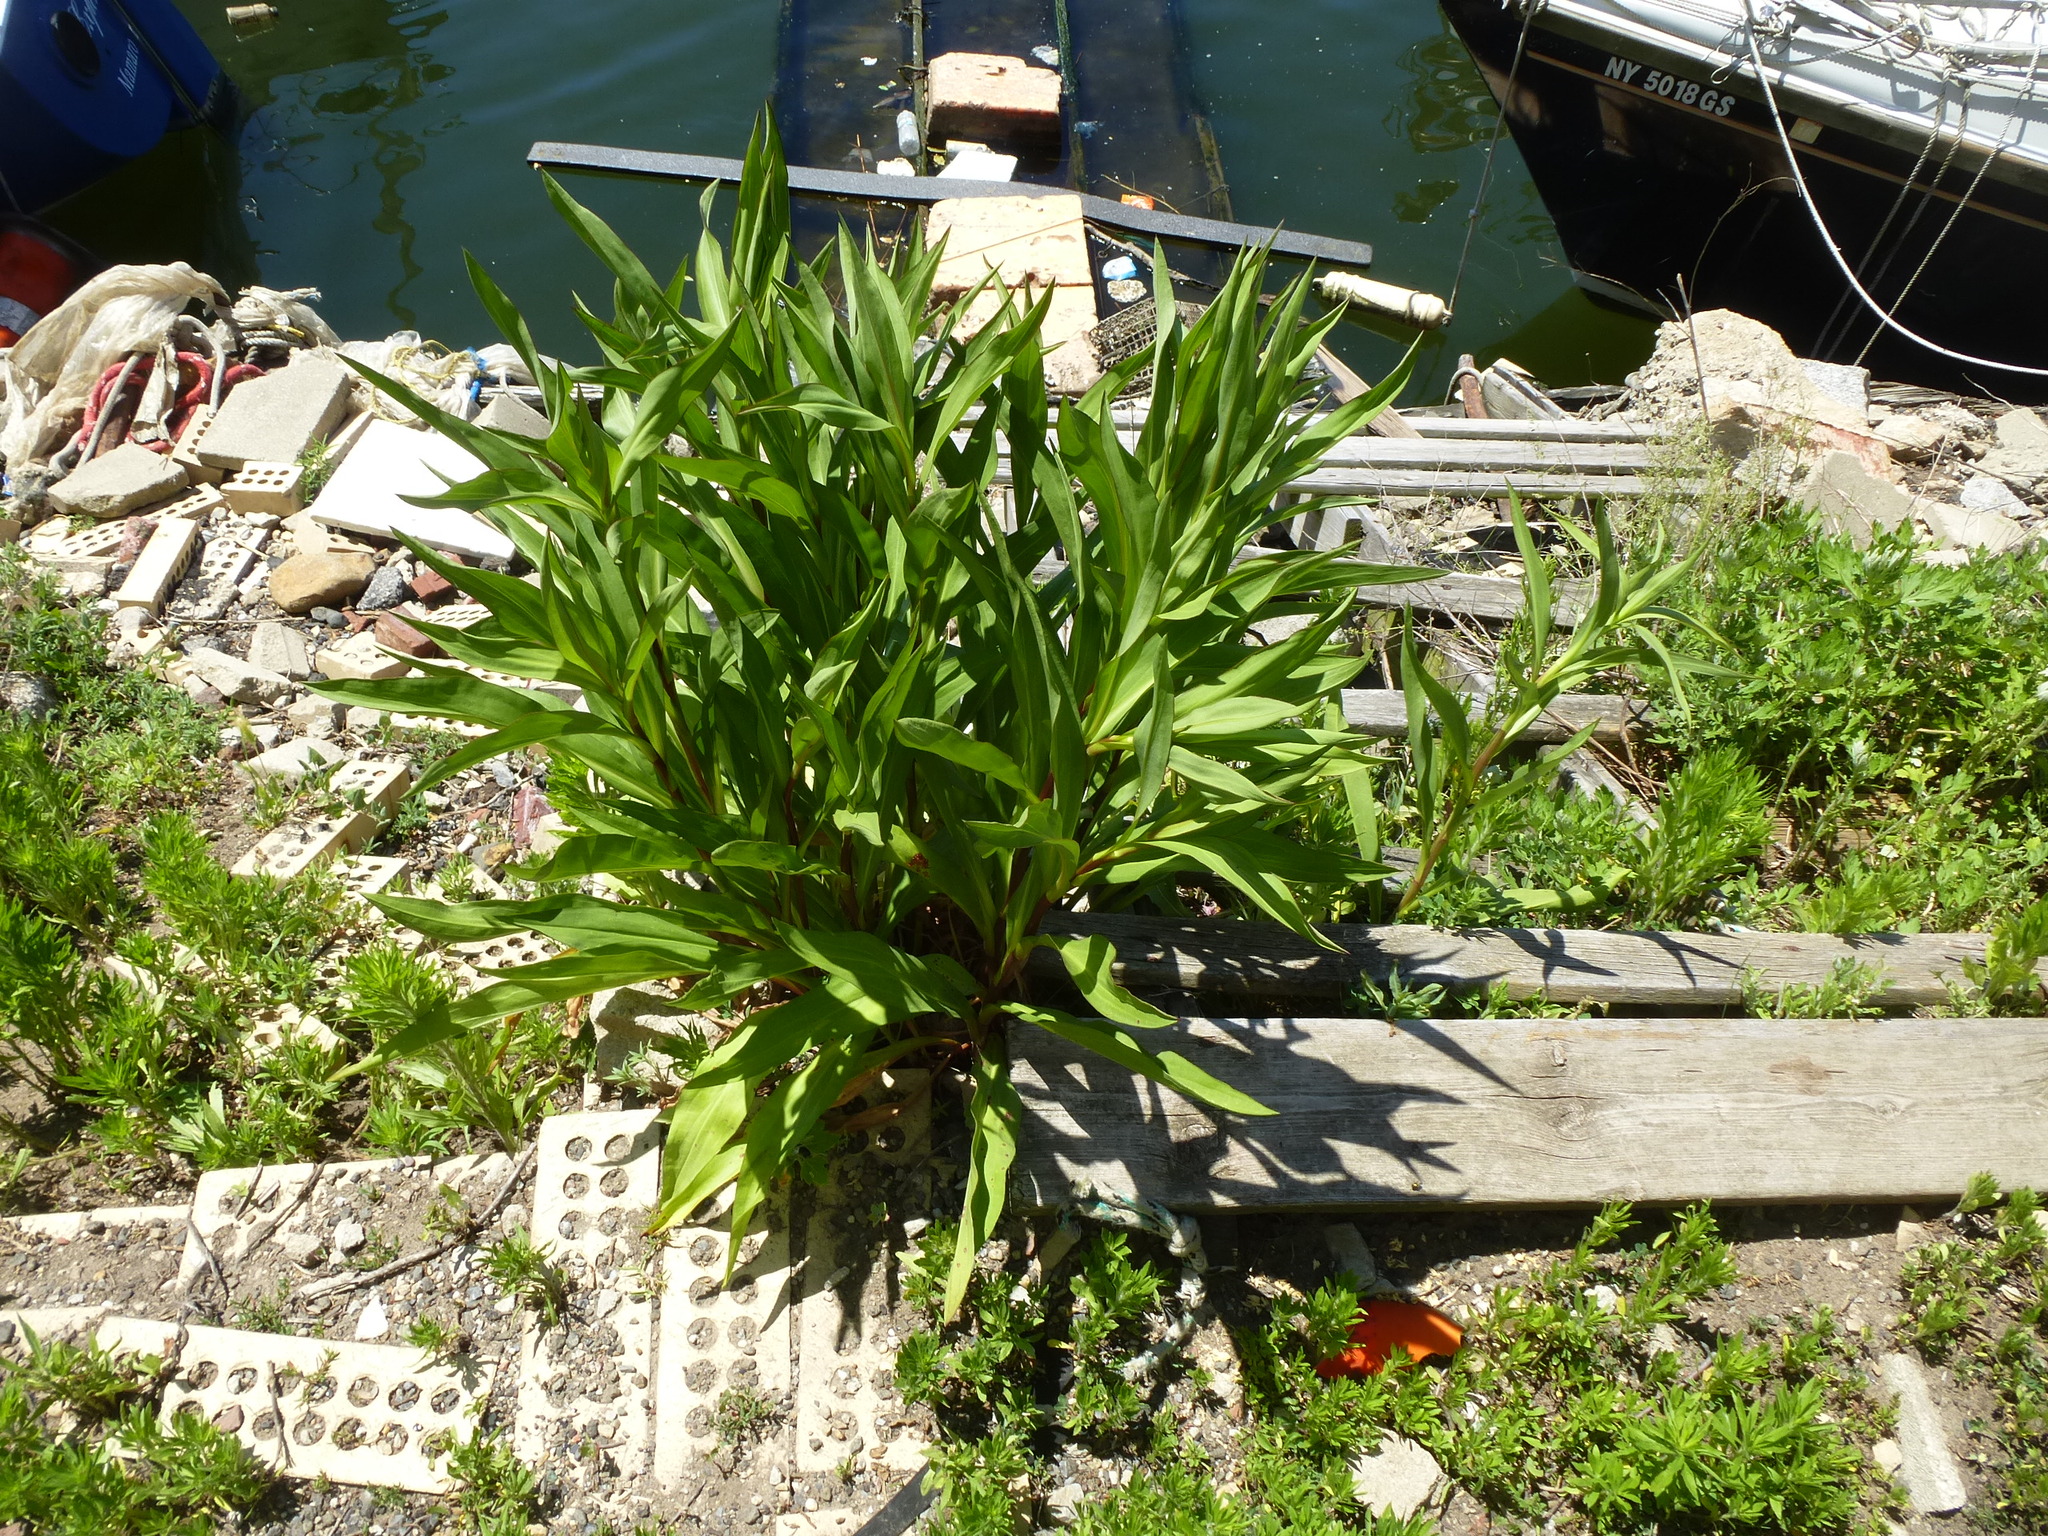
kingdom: Plantae
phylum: Tracheophyta
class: Magnoliopsida
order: Asterales
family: Asteraceae
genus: Solidago
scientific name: Solidago sempervirens
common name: Salt-marsh goldenrod
